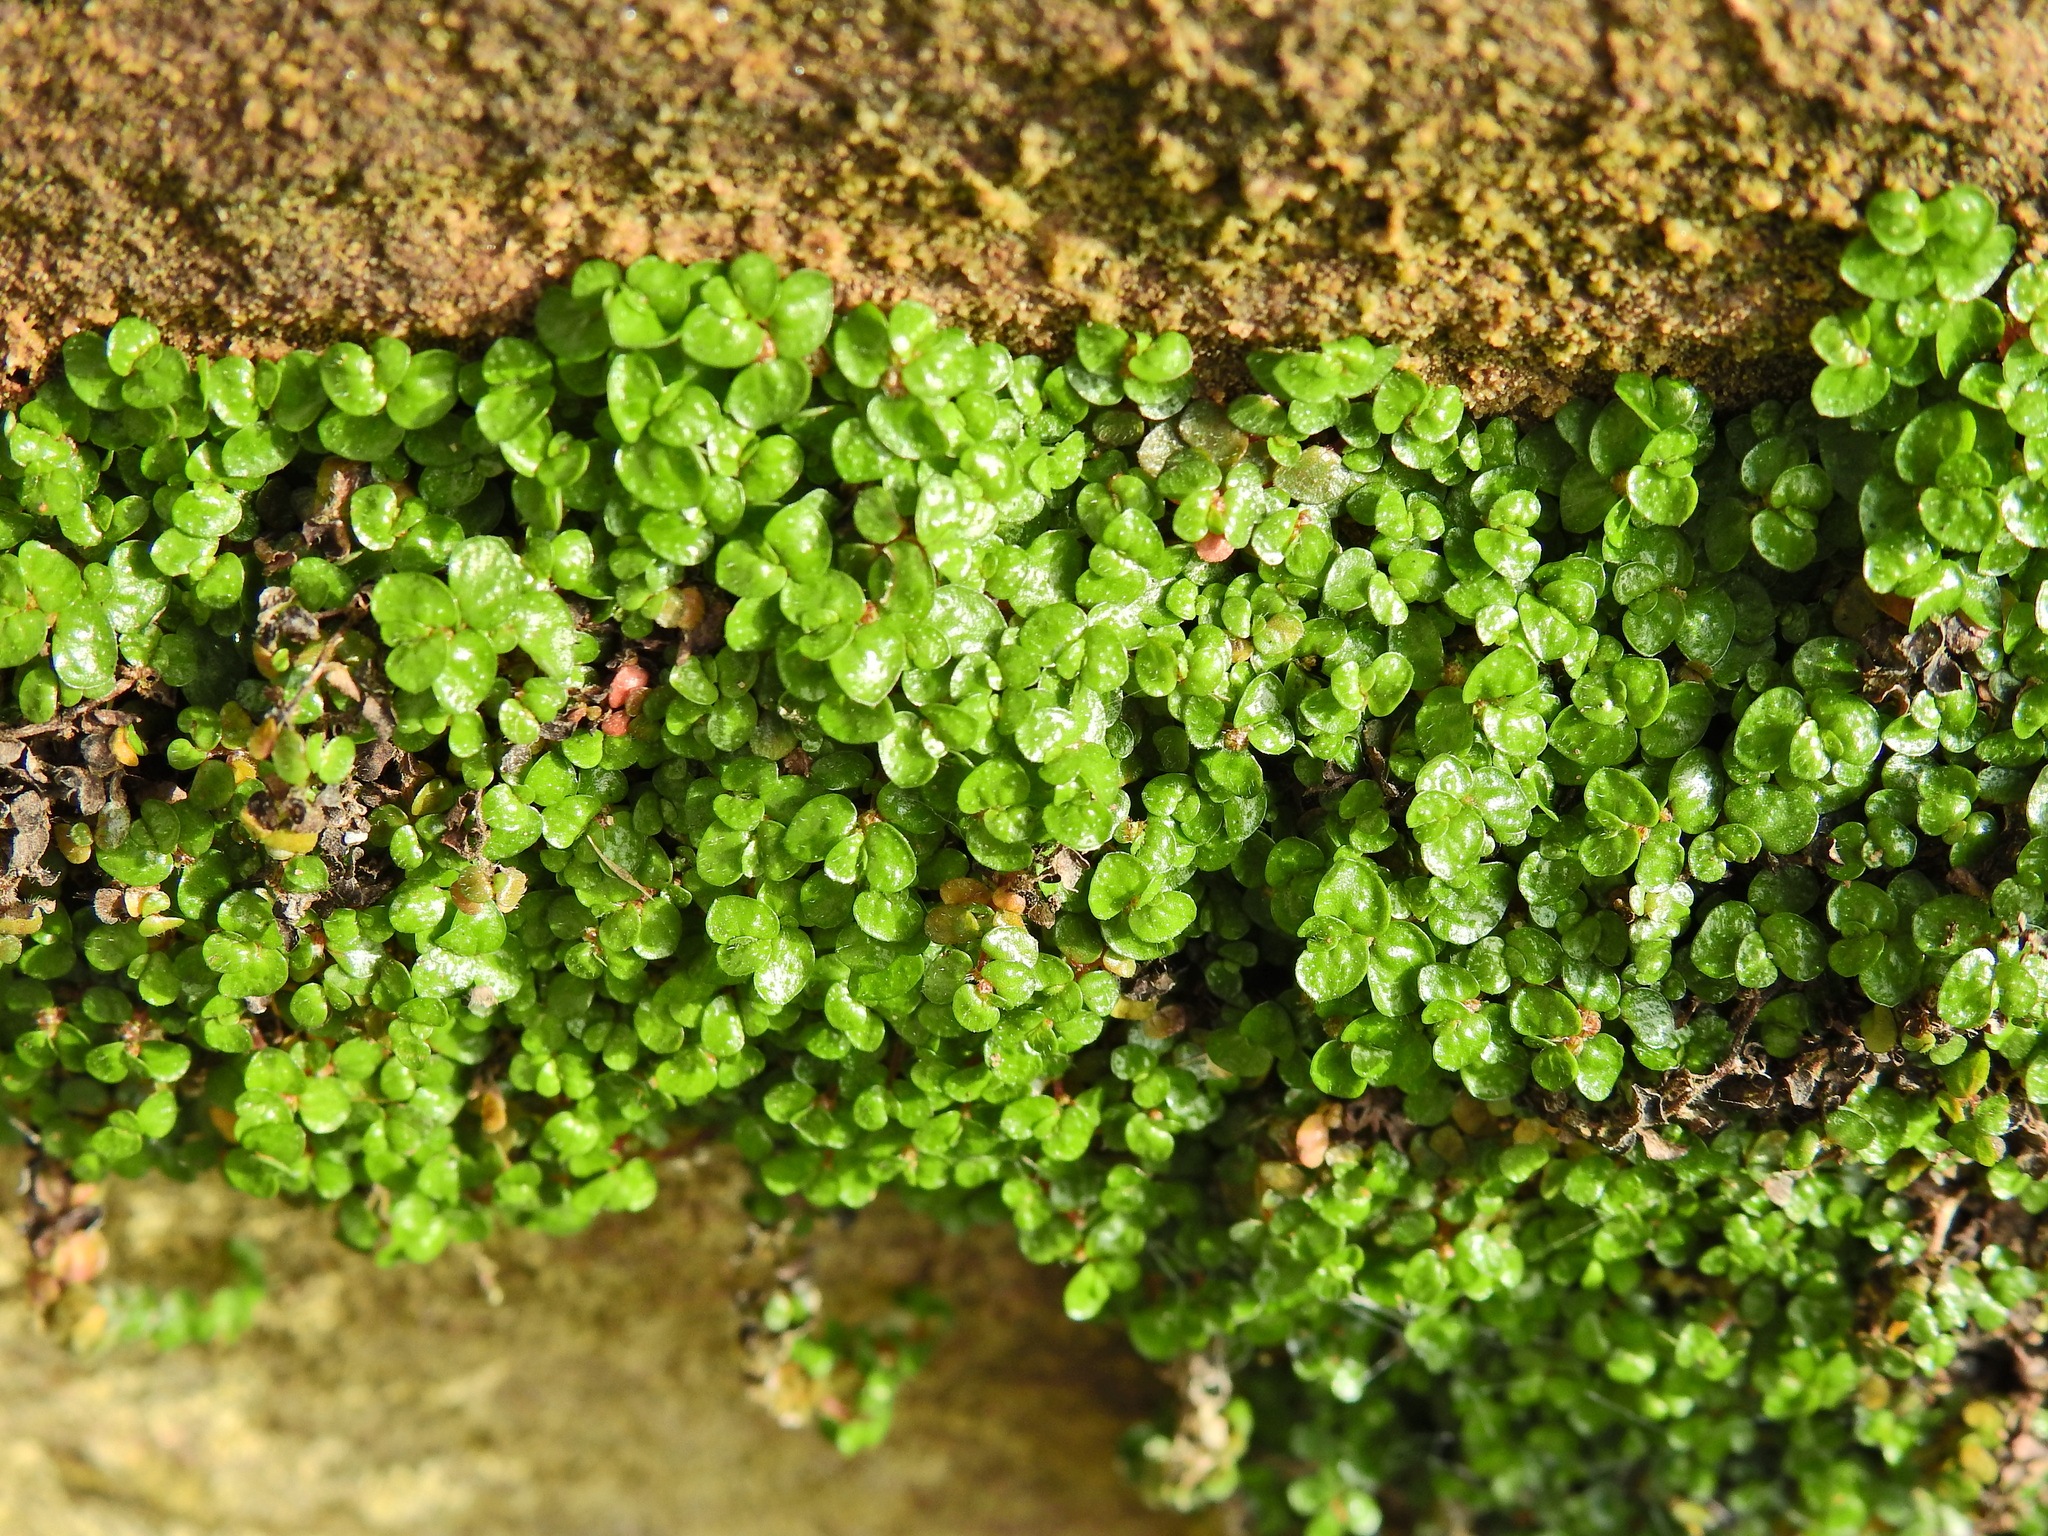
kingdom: Plantae
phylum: Tracheophyta
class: Magnoliopsida
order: Rosales
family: Urticaceae
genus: Soleirolia
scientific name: Soleirolia soleirolii
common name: Mind-your-own-business
